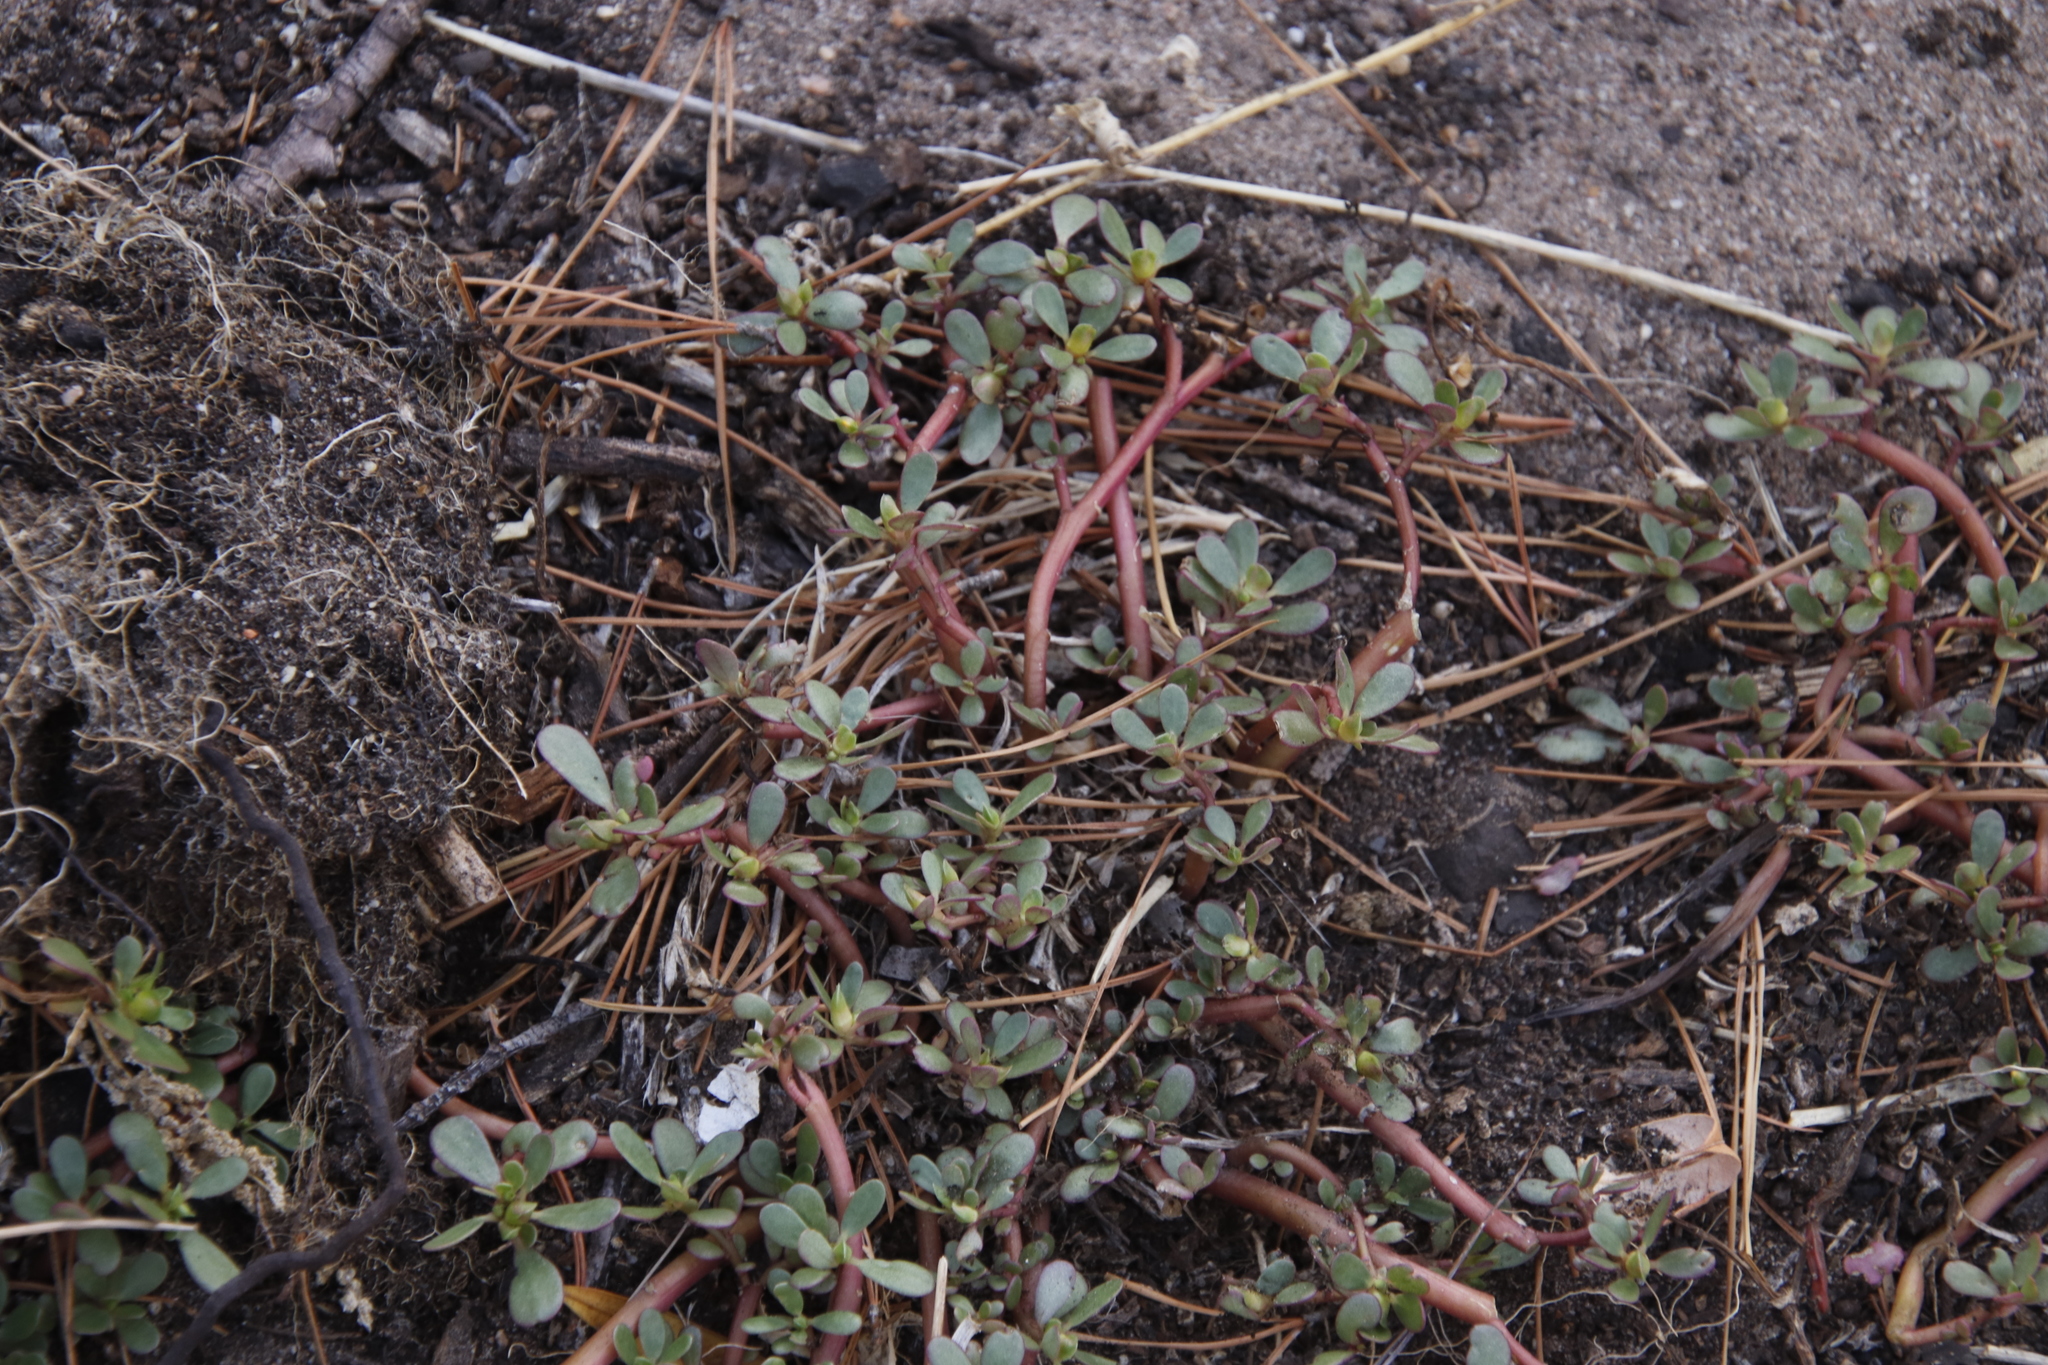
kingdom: Plantae
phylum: Tracheophyta
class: Magnoliopsida
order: Caryophyllales
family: Portulacaceae
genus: Portulaca
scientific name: Portulaca oleracea
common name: Common purslane
